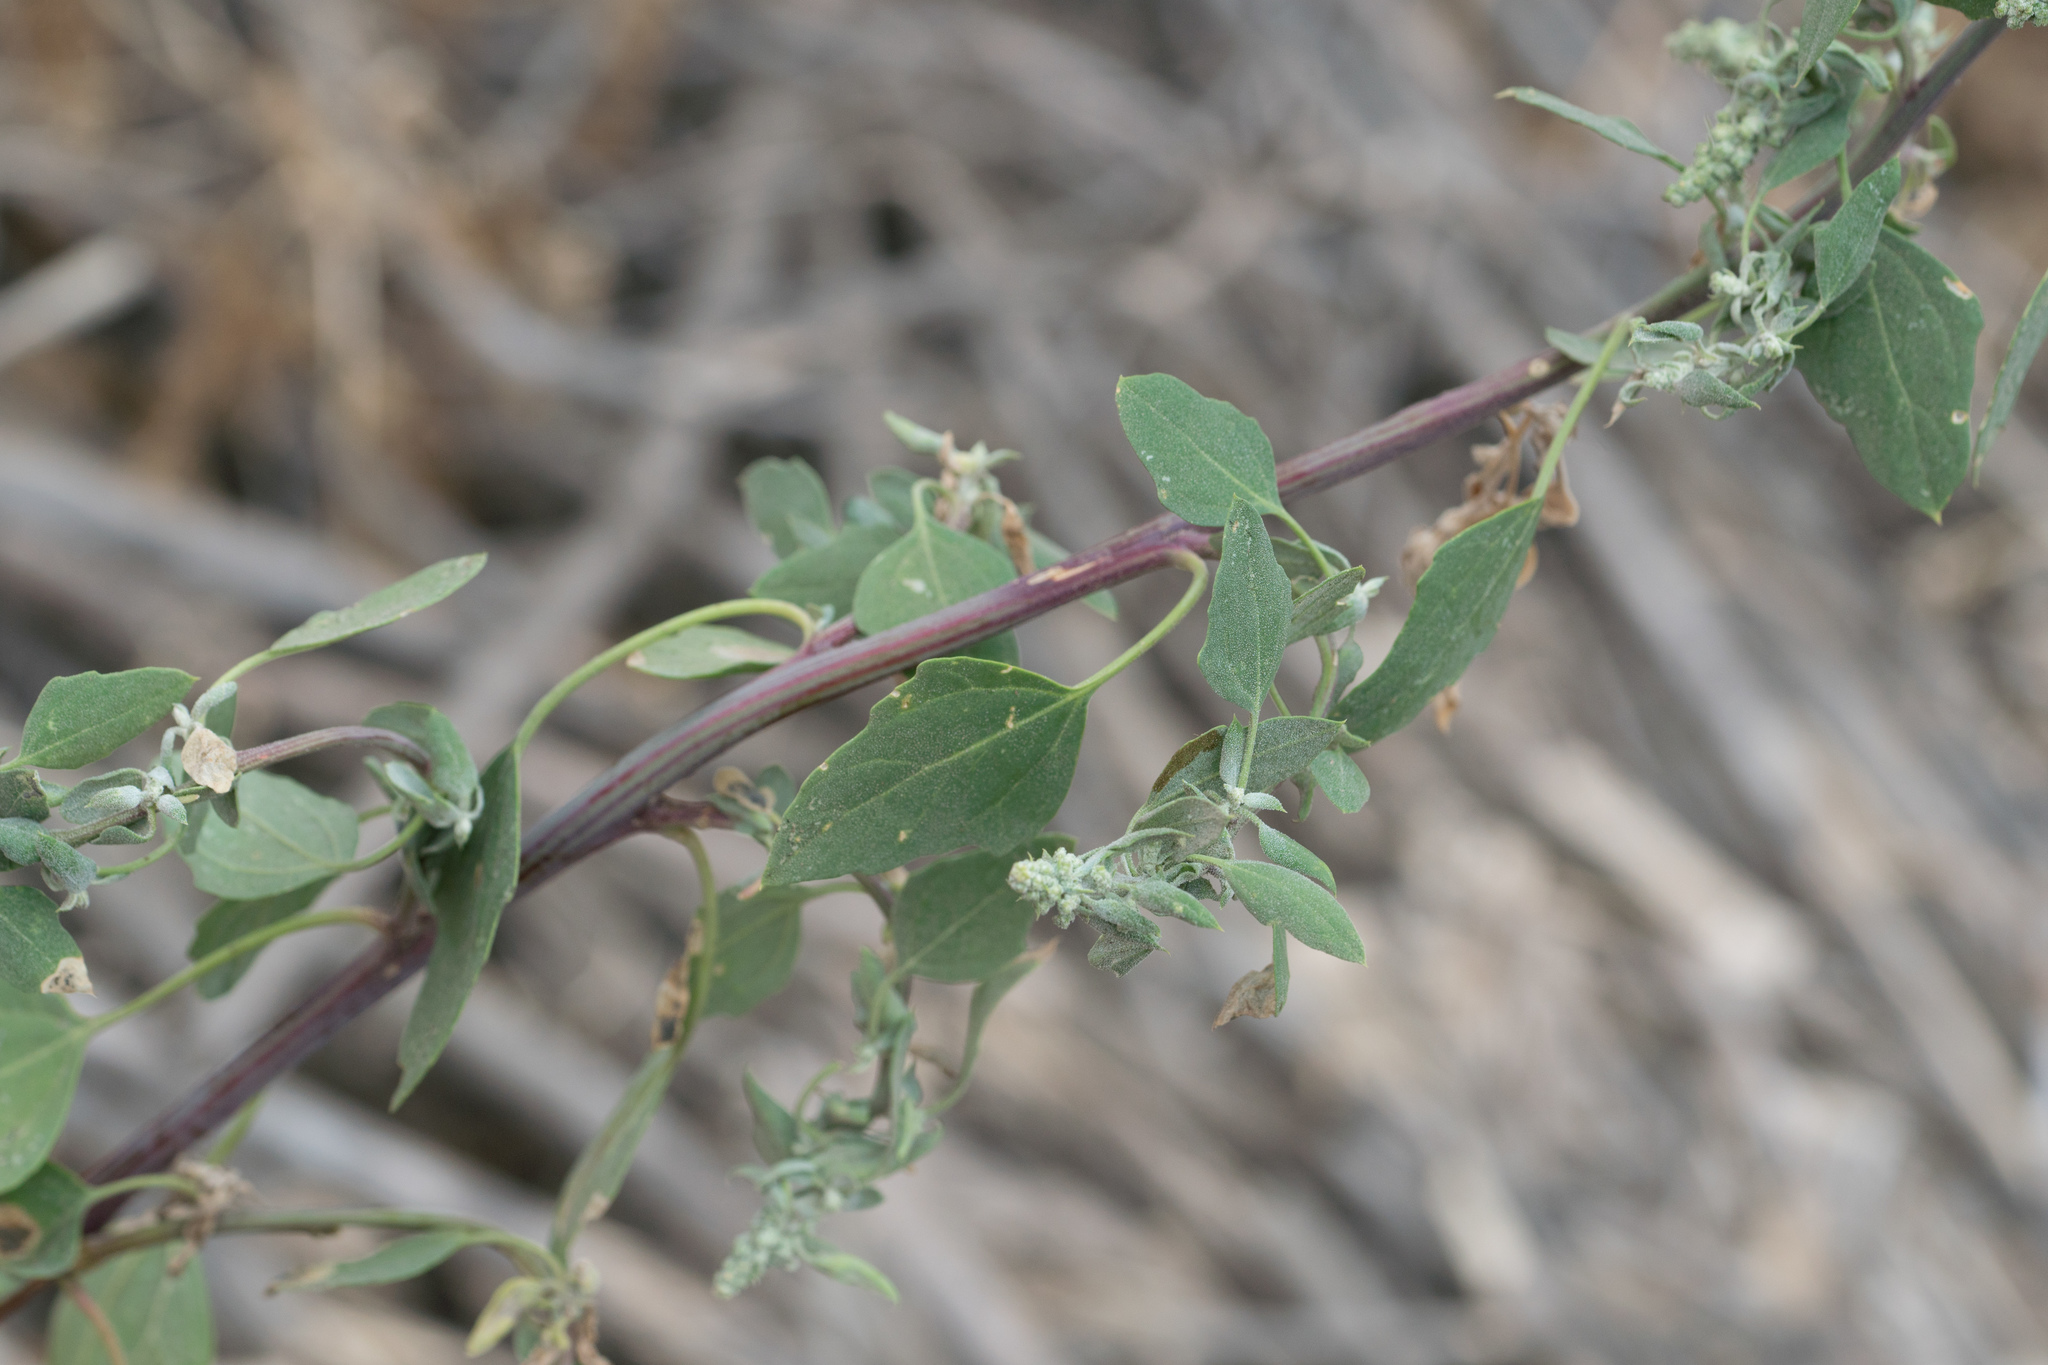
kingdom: Plantae
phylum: Tracheophyta
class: Magnoliopsida
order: Caryophyllales
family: Amaranthaceae
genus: Chenopodium
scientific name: Chenopodium album
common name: Fat-hen
